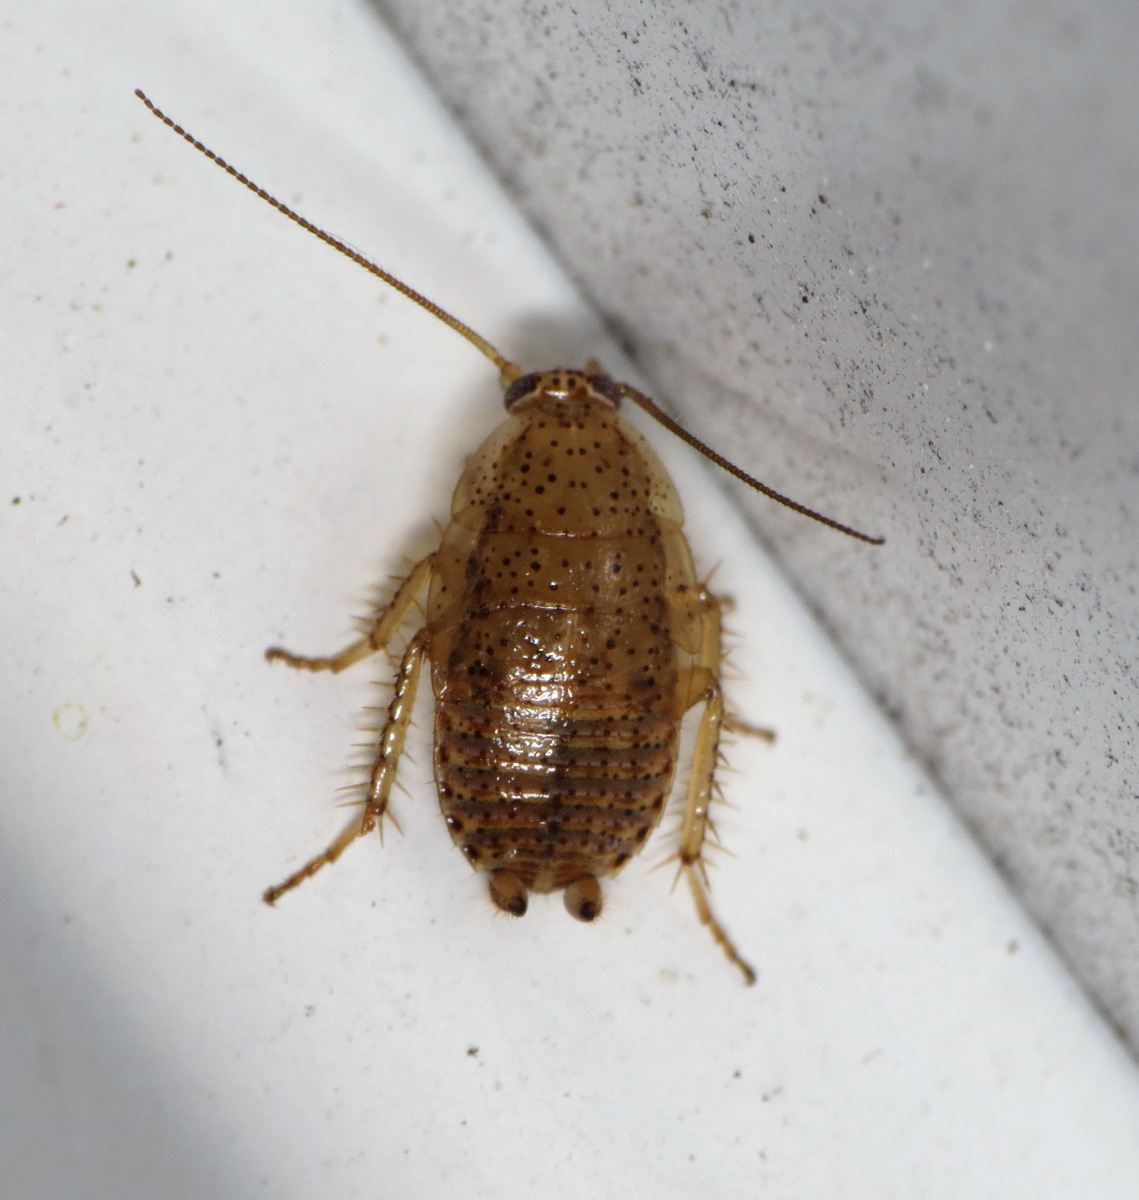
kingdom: Animalia
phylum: Arthropoda
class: Insecta
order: Blattodea
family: Ectobiidae
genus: Ectobius
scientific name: Ectobius pallidus
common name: Tawny cockroach
